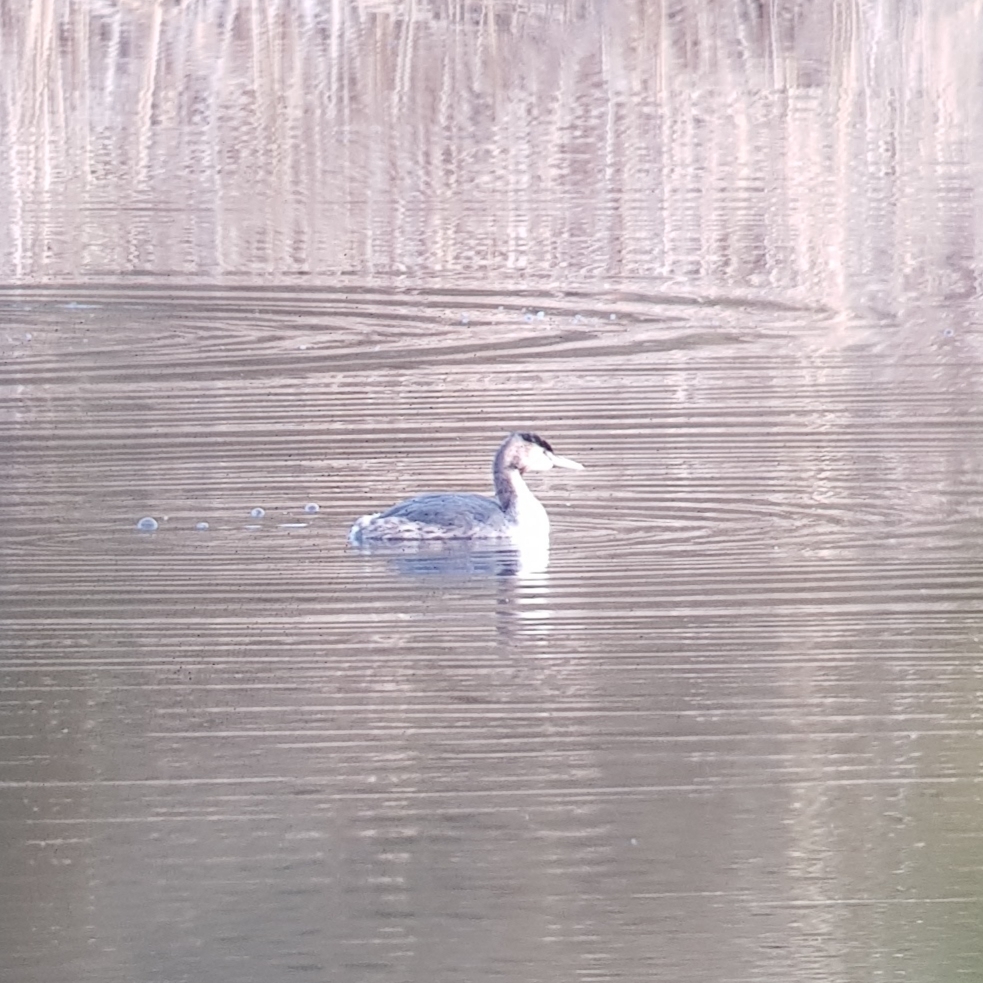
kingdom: Animalia
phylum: Chordata
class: Aves
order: Podicipediformes
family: Podicipedidae
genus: Podiceps
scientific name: Podiceps cristatus
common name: Great crested grebe
